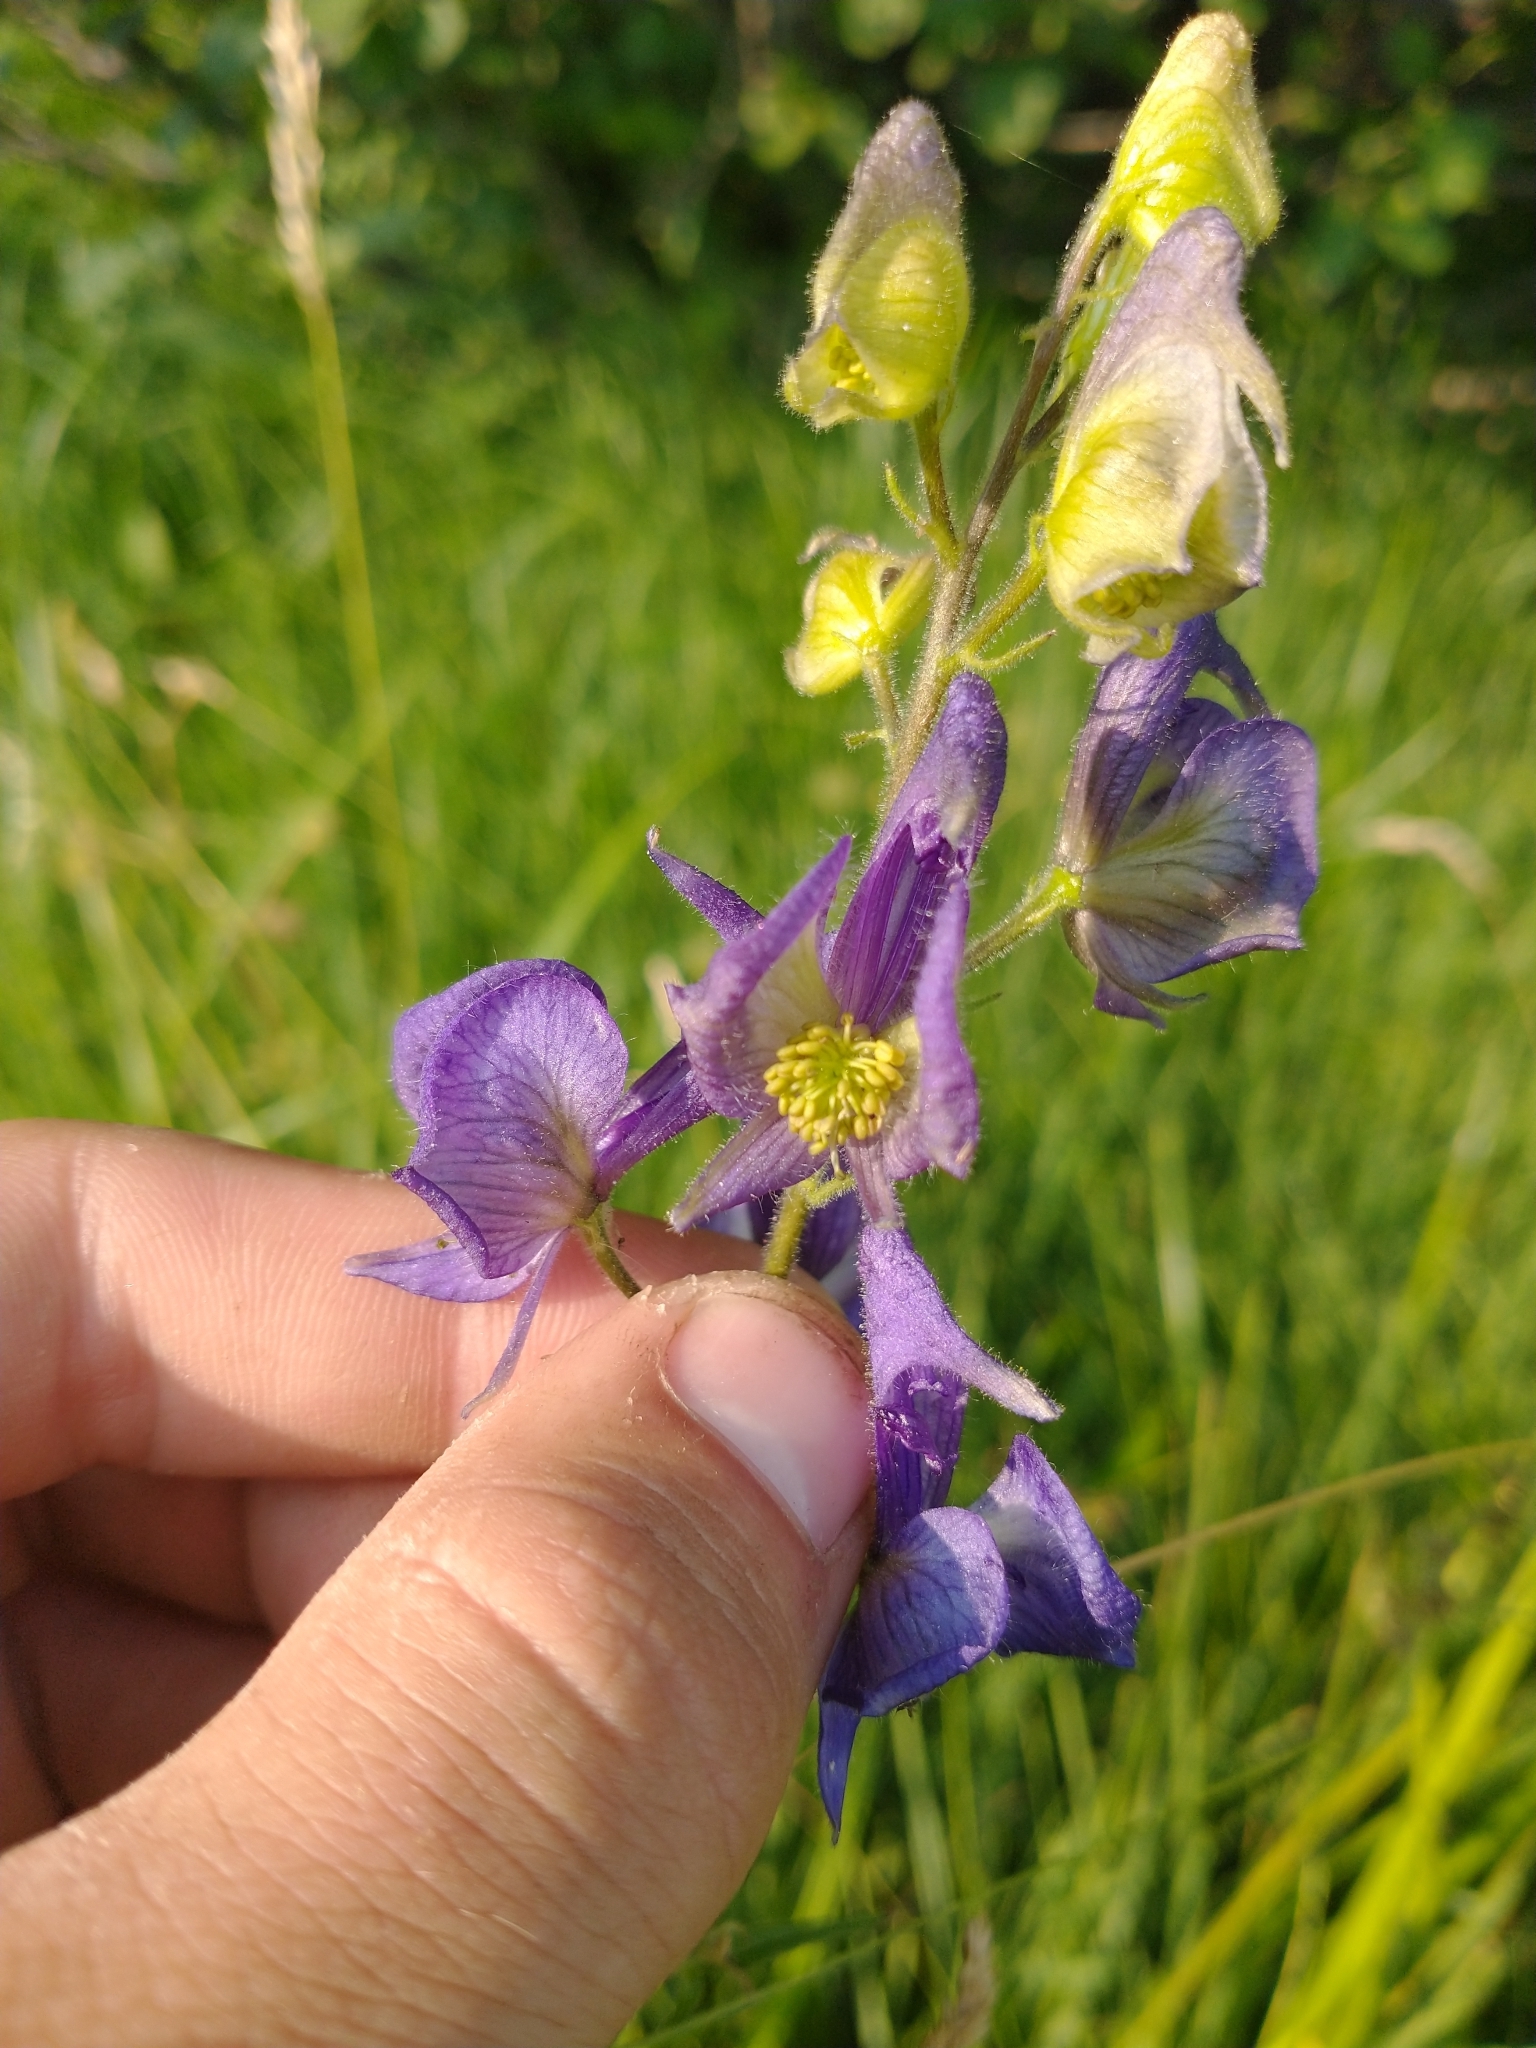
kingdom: Plantae
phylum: Tracheophyta
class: Magnoliopsida
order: Ranunculales
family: Ranunculaceae
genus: Aconitum
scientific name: Aconitum columbianum
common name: Columbia aconite
